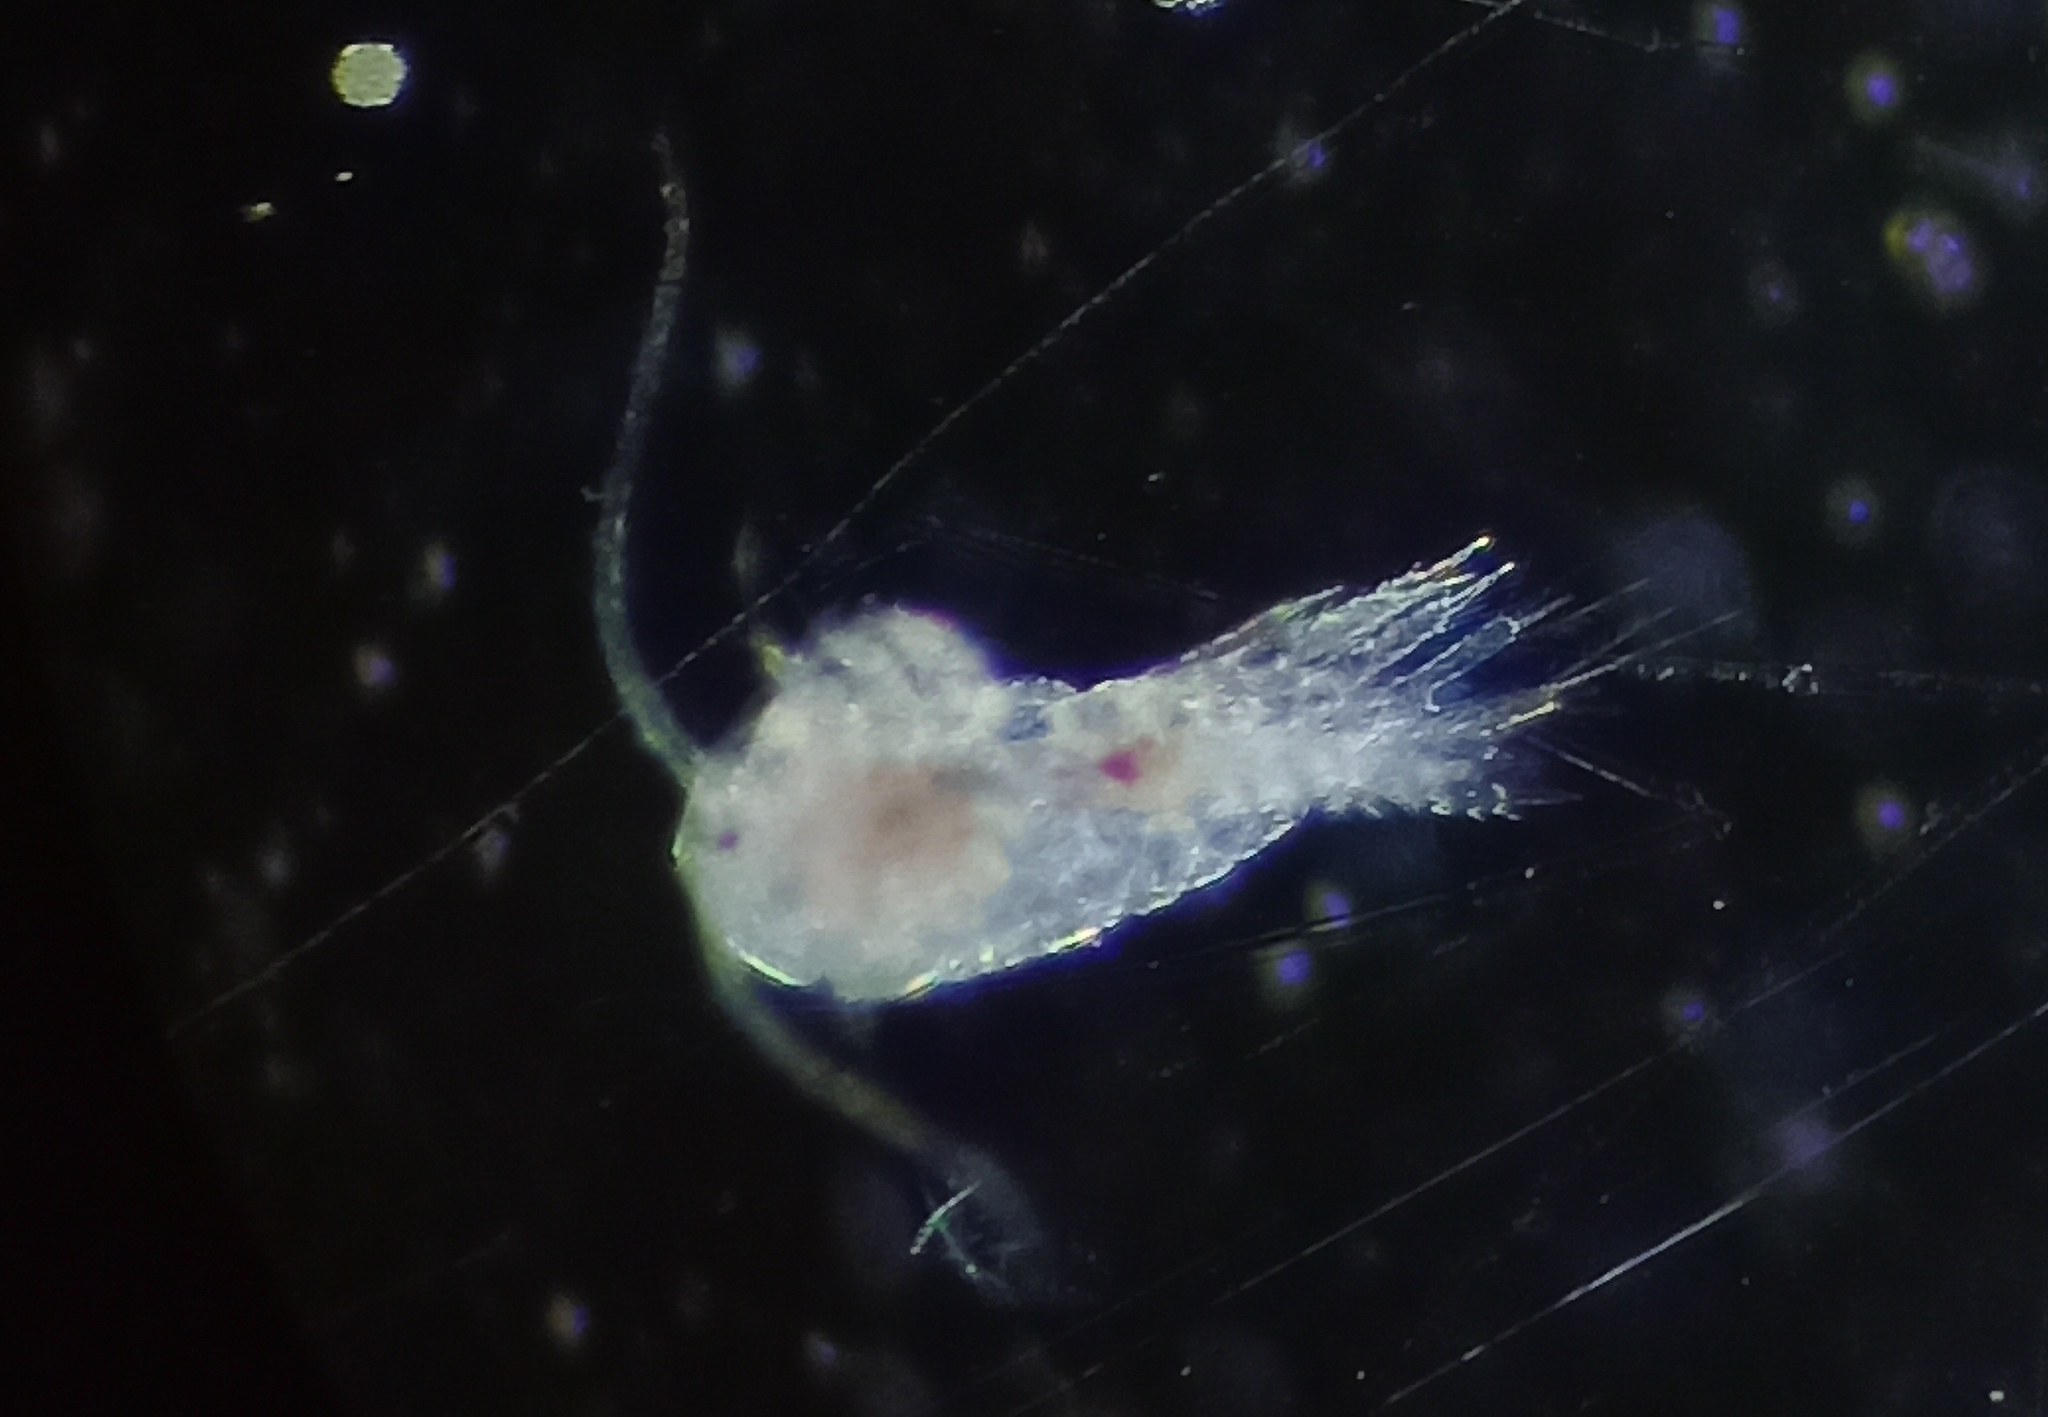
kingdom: Animalia
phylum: Arthropoda
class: Copepoda
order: Calanoida
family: Temoridae
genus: Temora
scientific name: Temora turbinata
